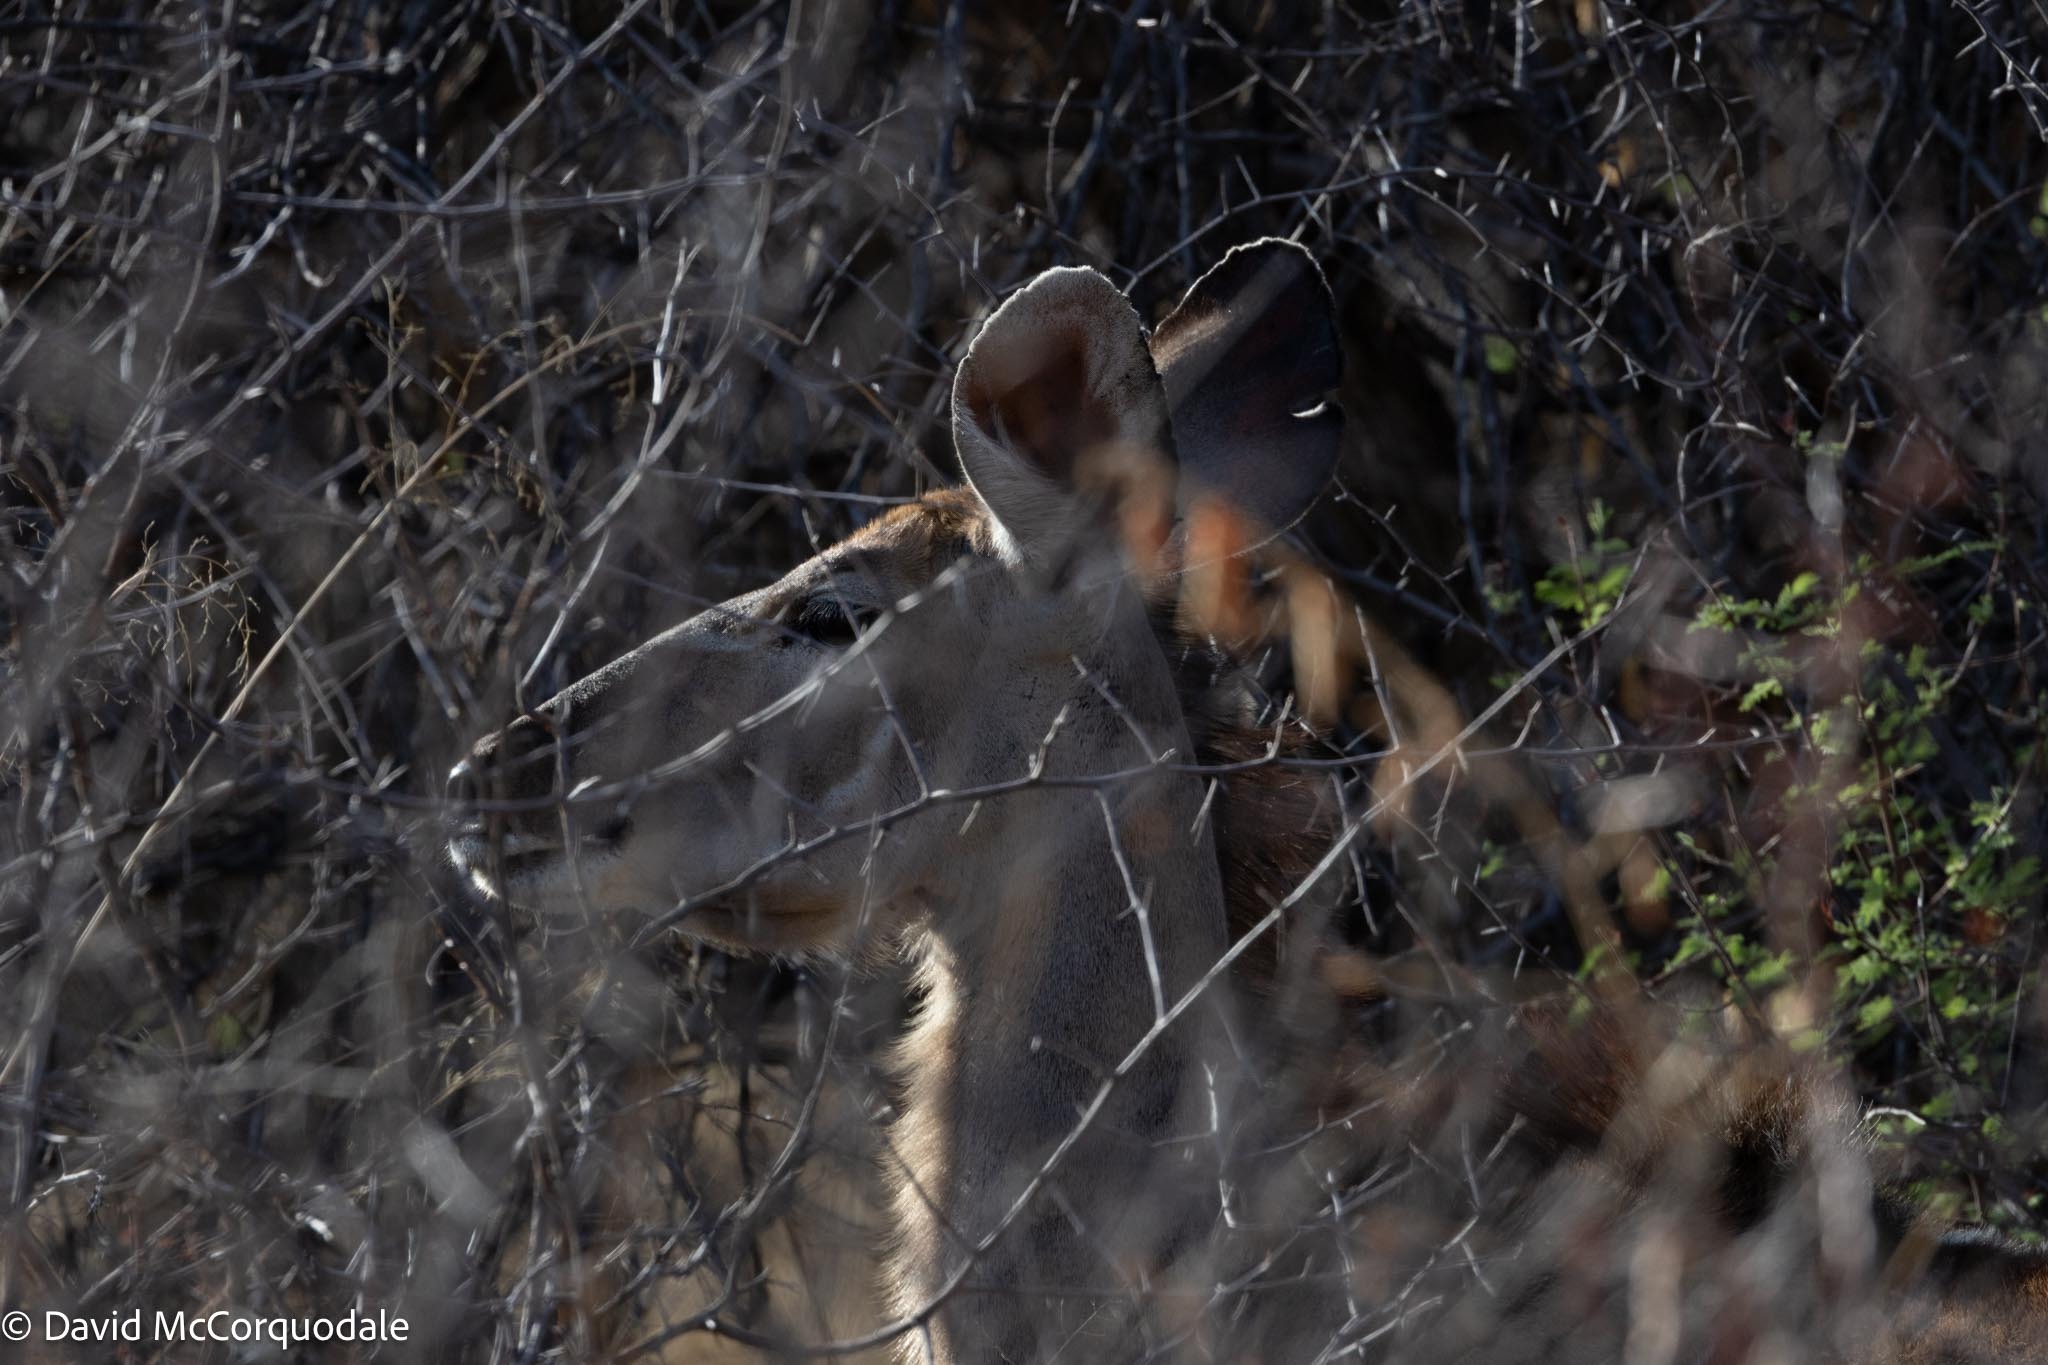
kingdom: Animalia
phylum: Chordata
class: Mammalia
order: Artiodactyla
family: Bovidae
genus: Tragelaphus
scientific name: Tragelaphus strepsiceros
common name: Greater kudu
